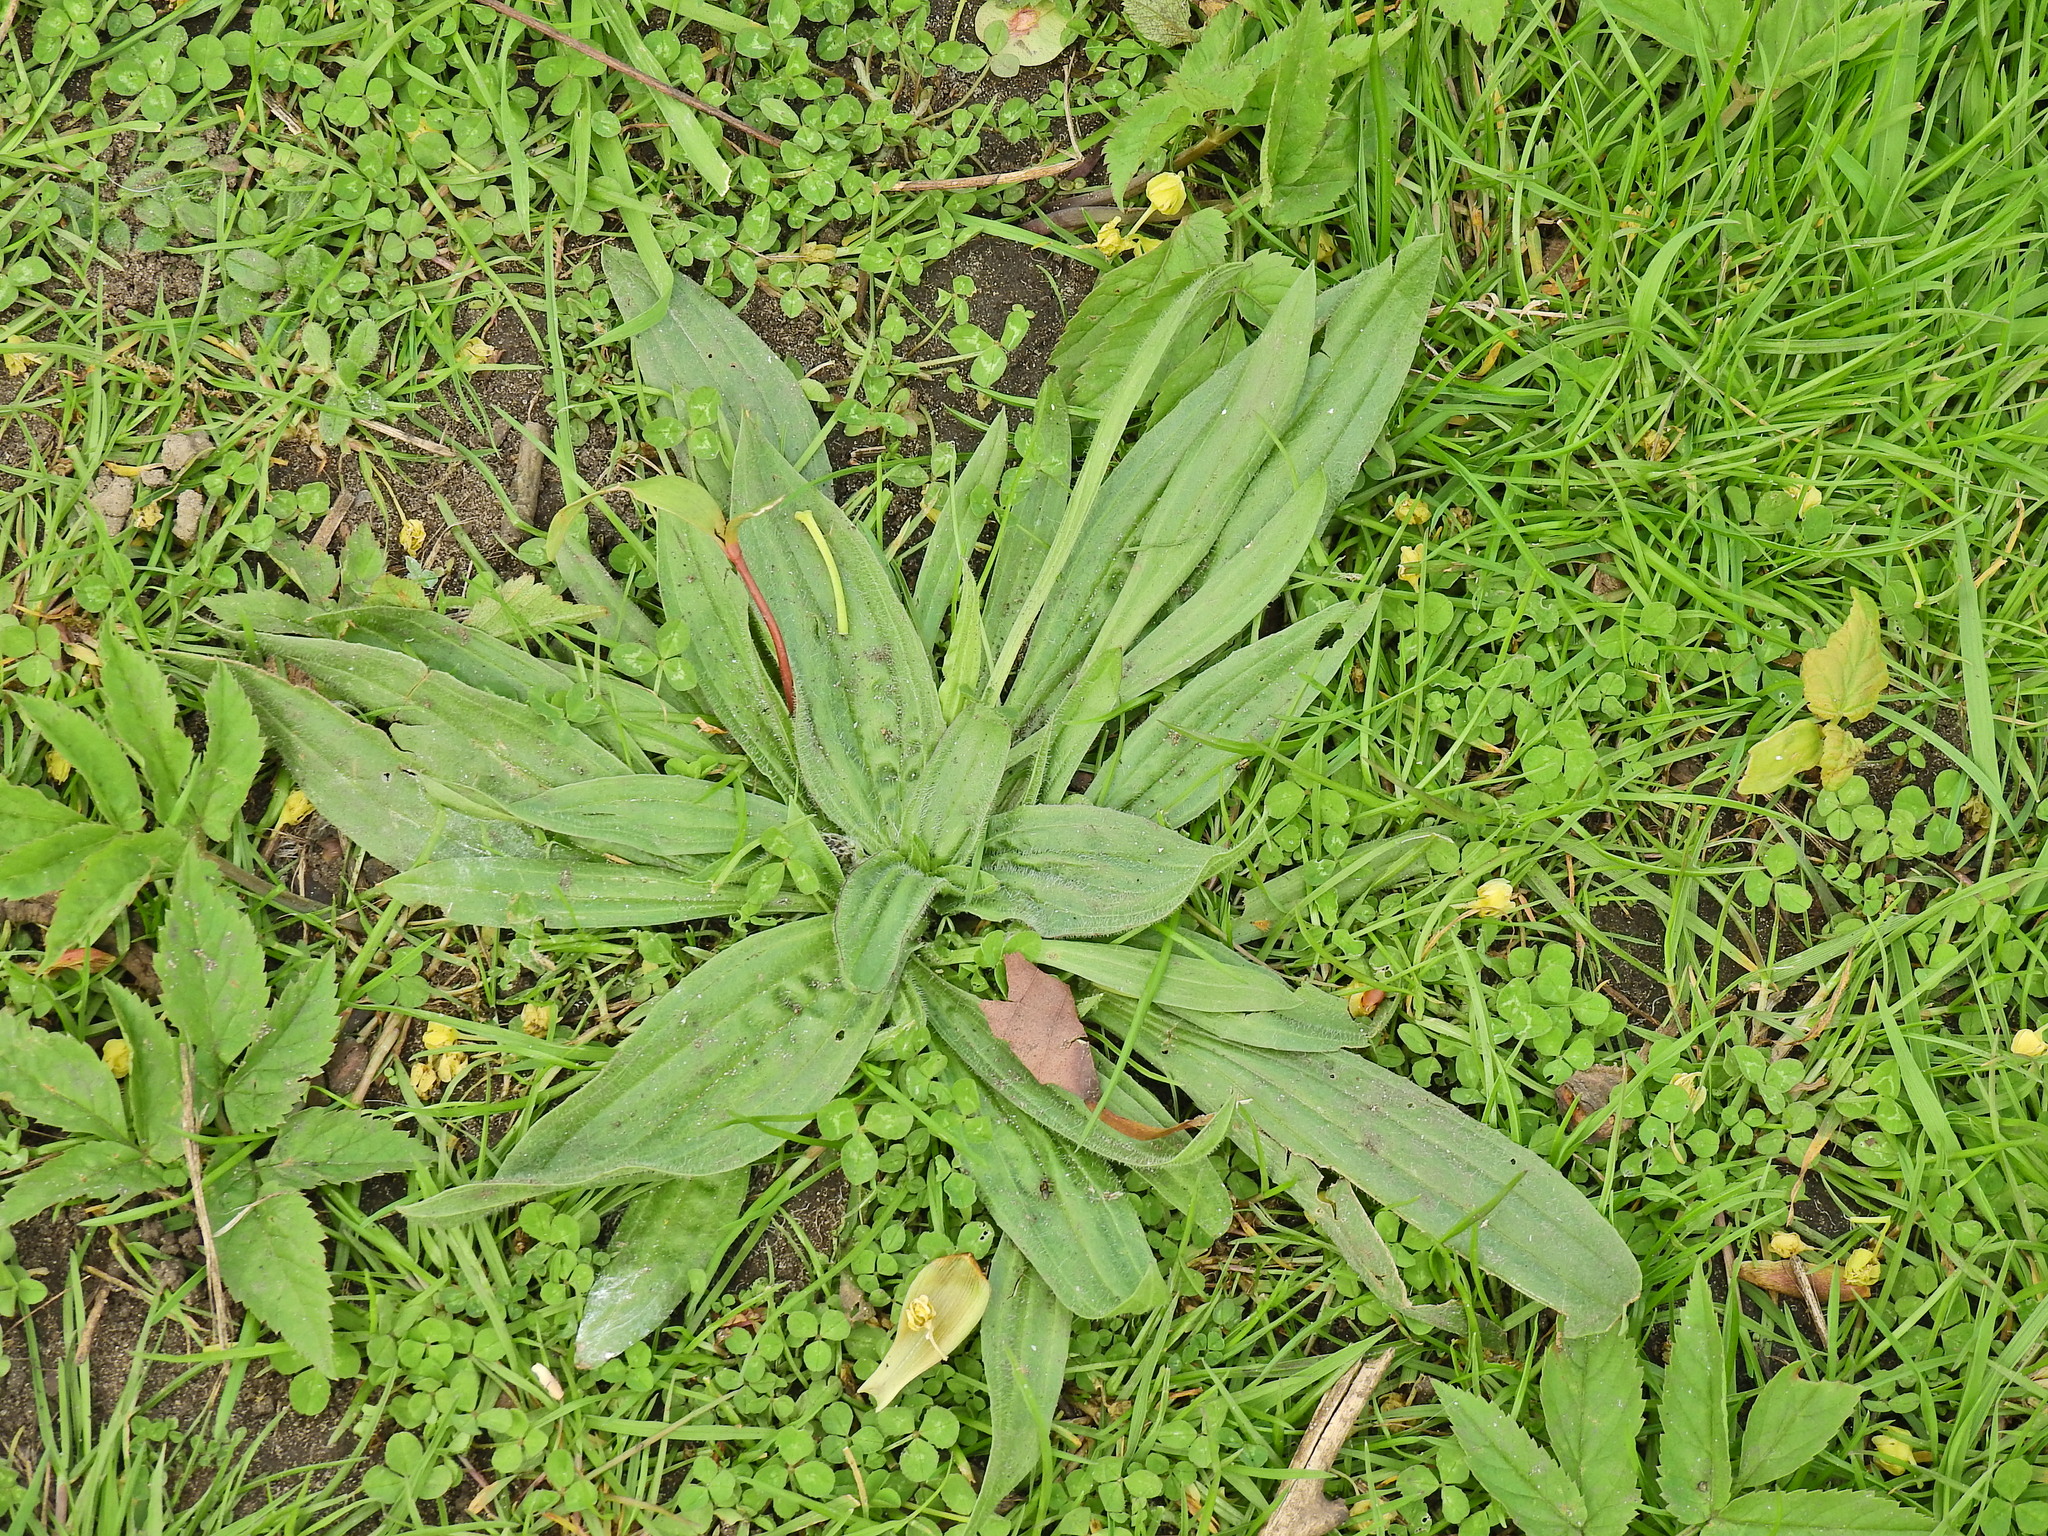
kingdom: Plantae
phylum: Tracheophyta
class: Magnoliopsida
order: Lamiales
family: Plantaginaceae
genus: Plantago
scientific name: Plantago lanceolata
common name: Ribwort plantain
